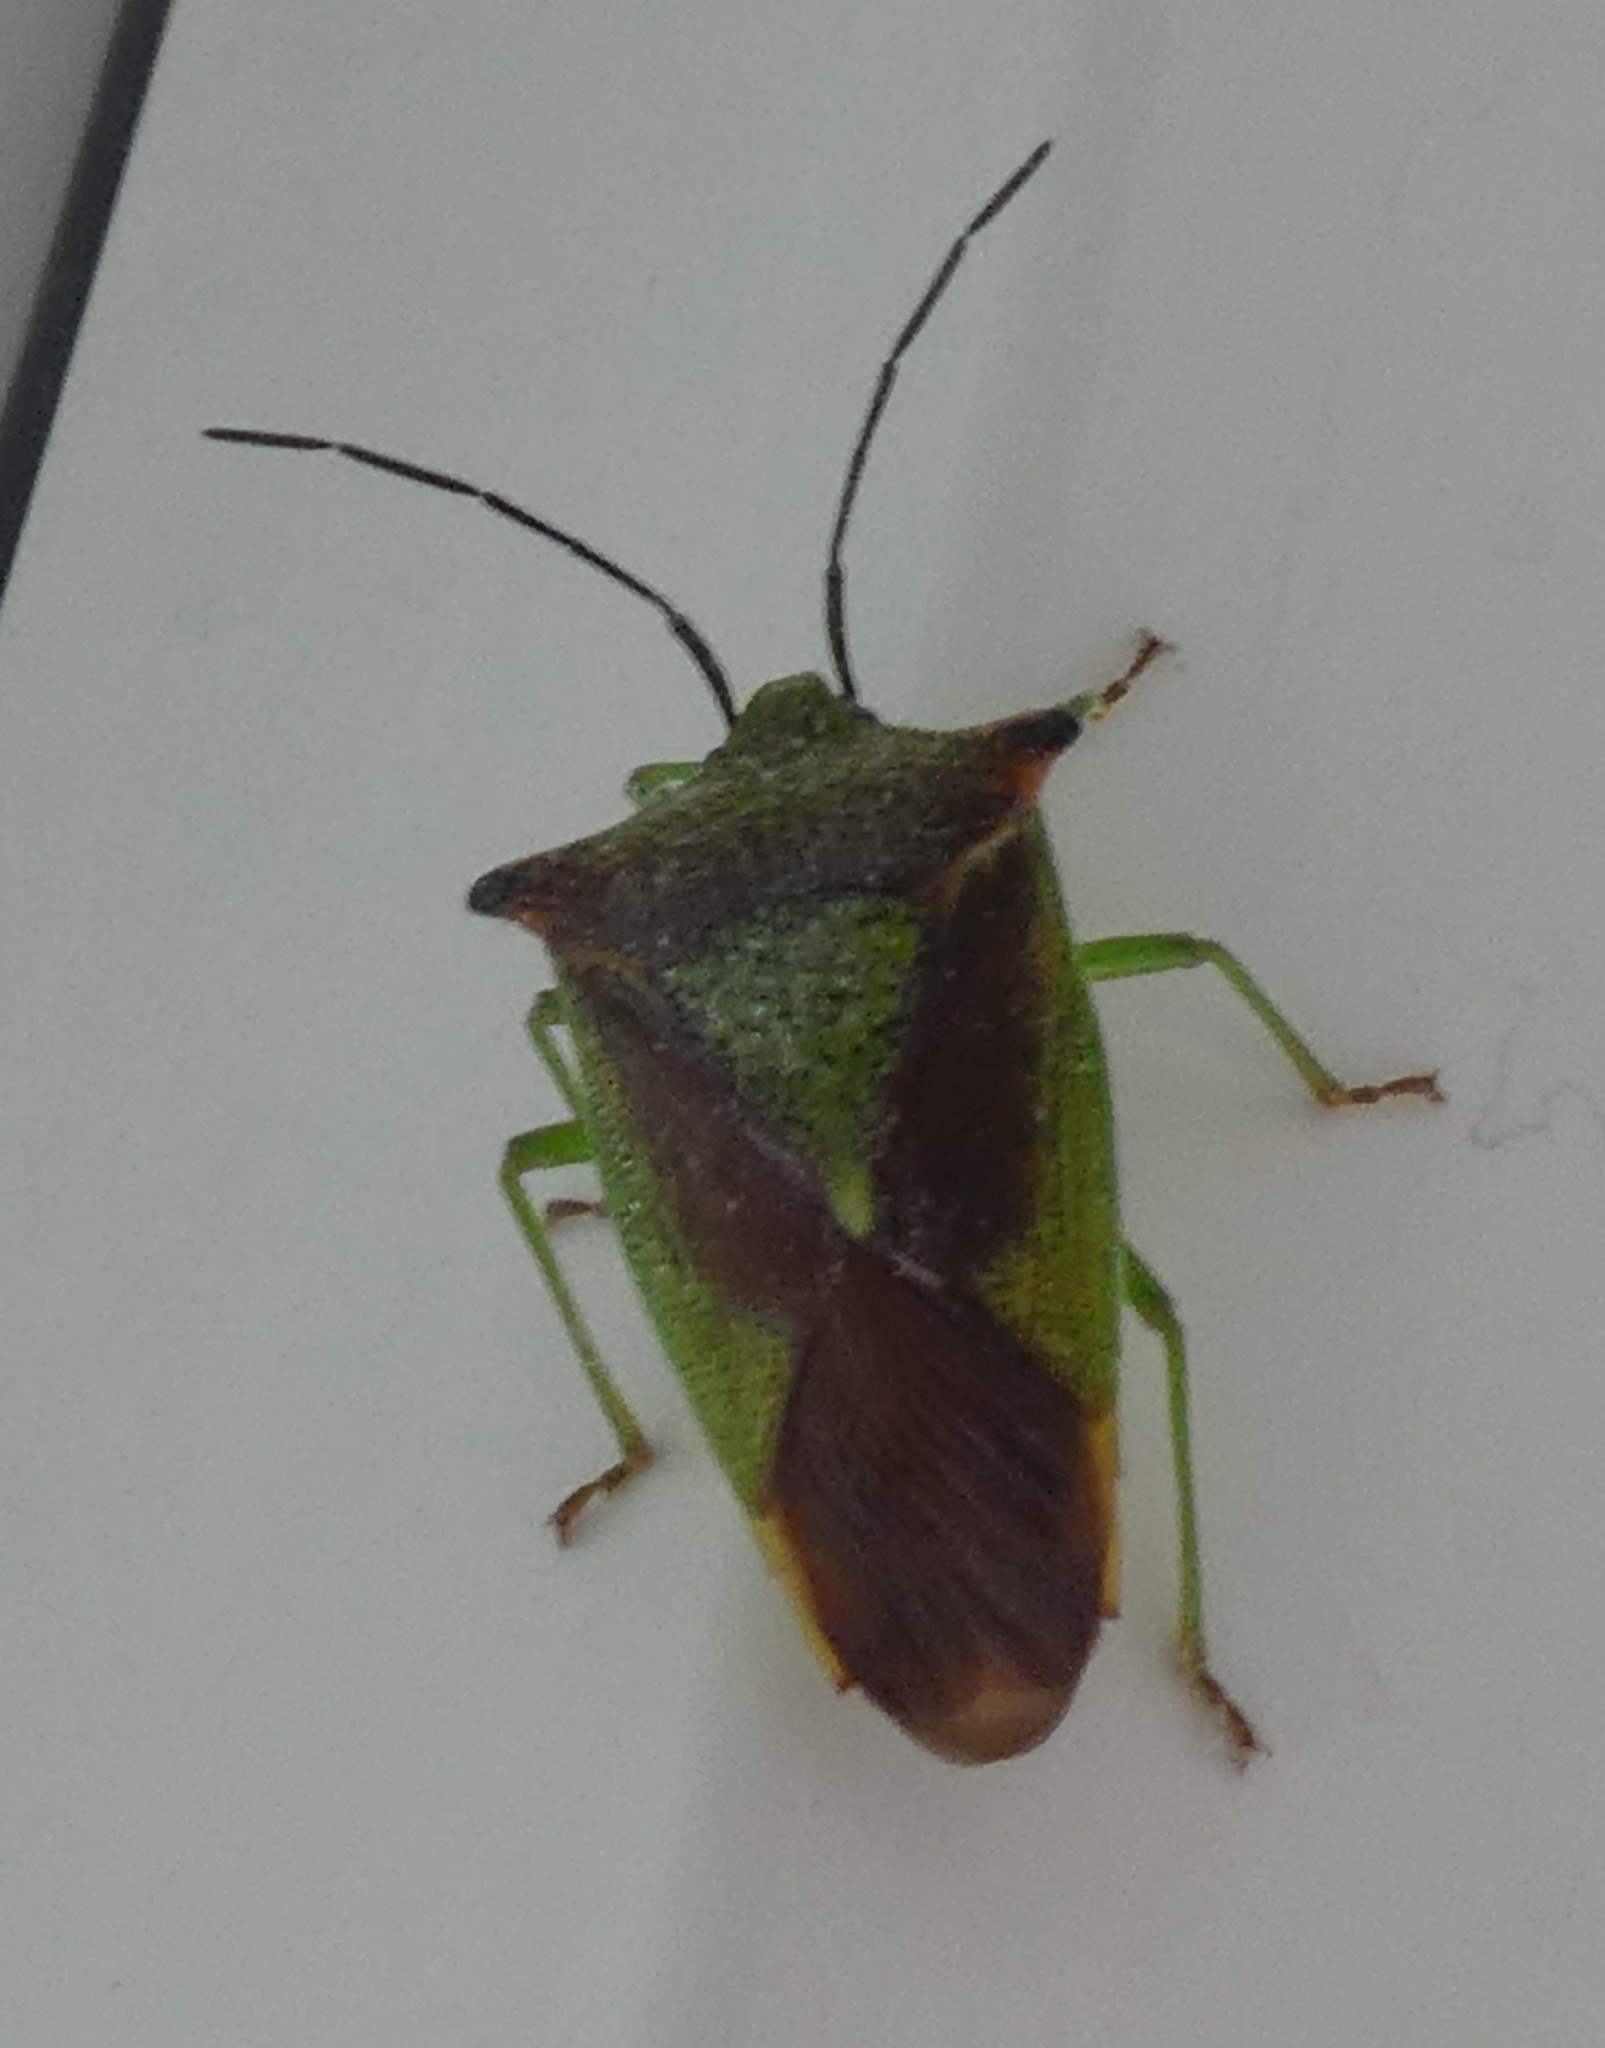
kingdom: Animalia
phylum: Arthropoda
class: Insecta
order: Hemiptera
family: Acanthosomatidae
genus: Acanthosoma
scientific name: Acanthosoma haemorrhoidale
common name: Hawthorn shieldbug
